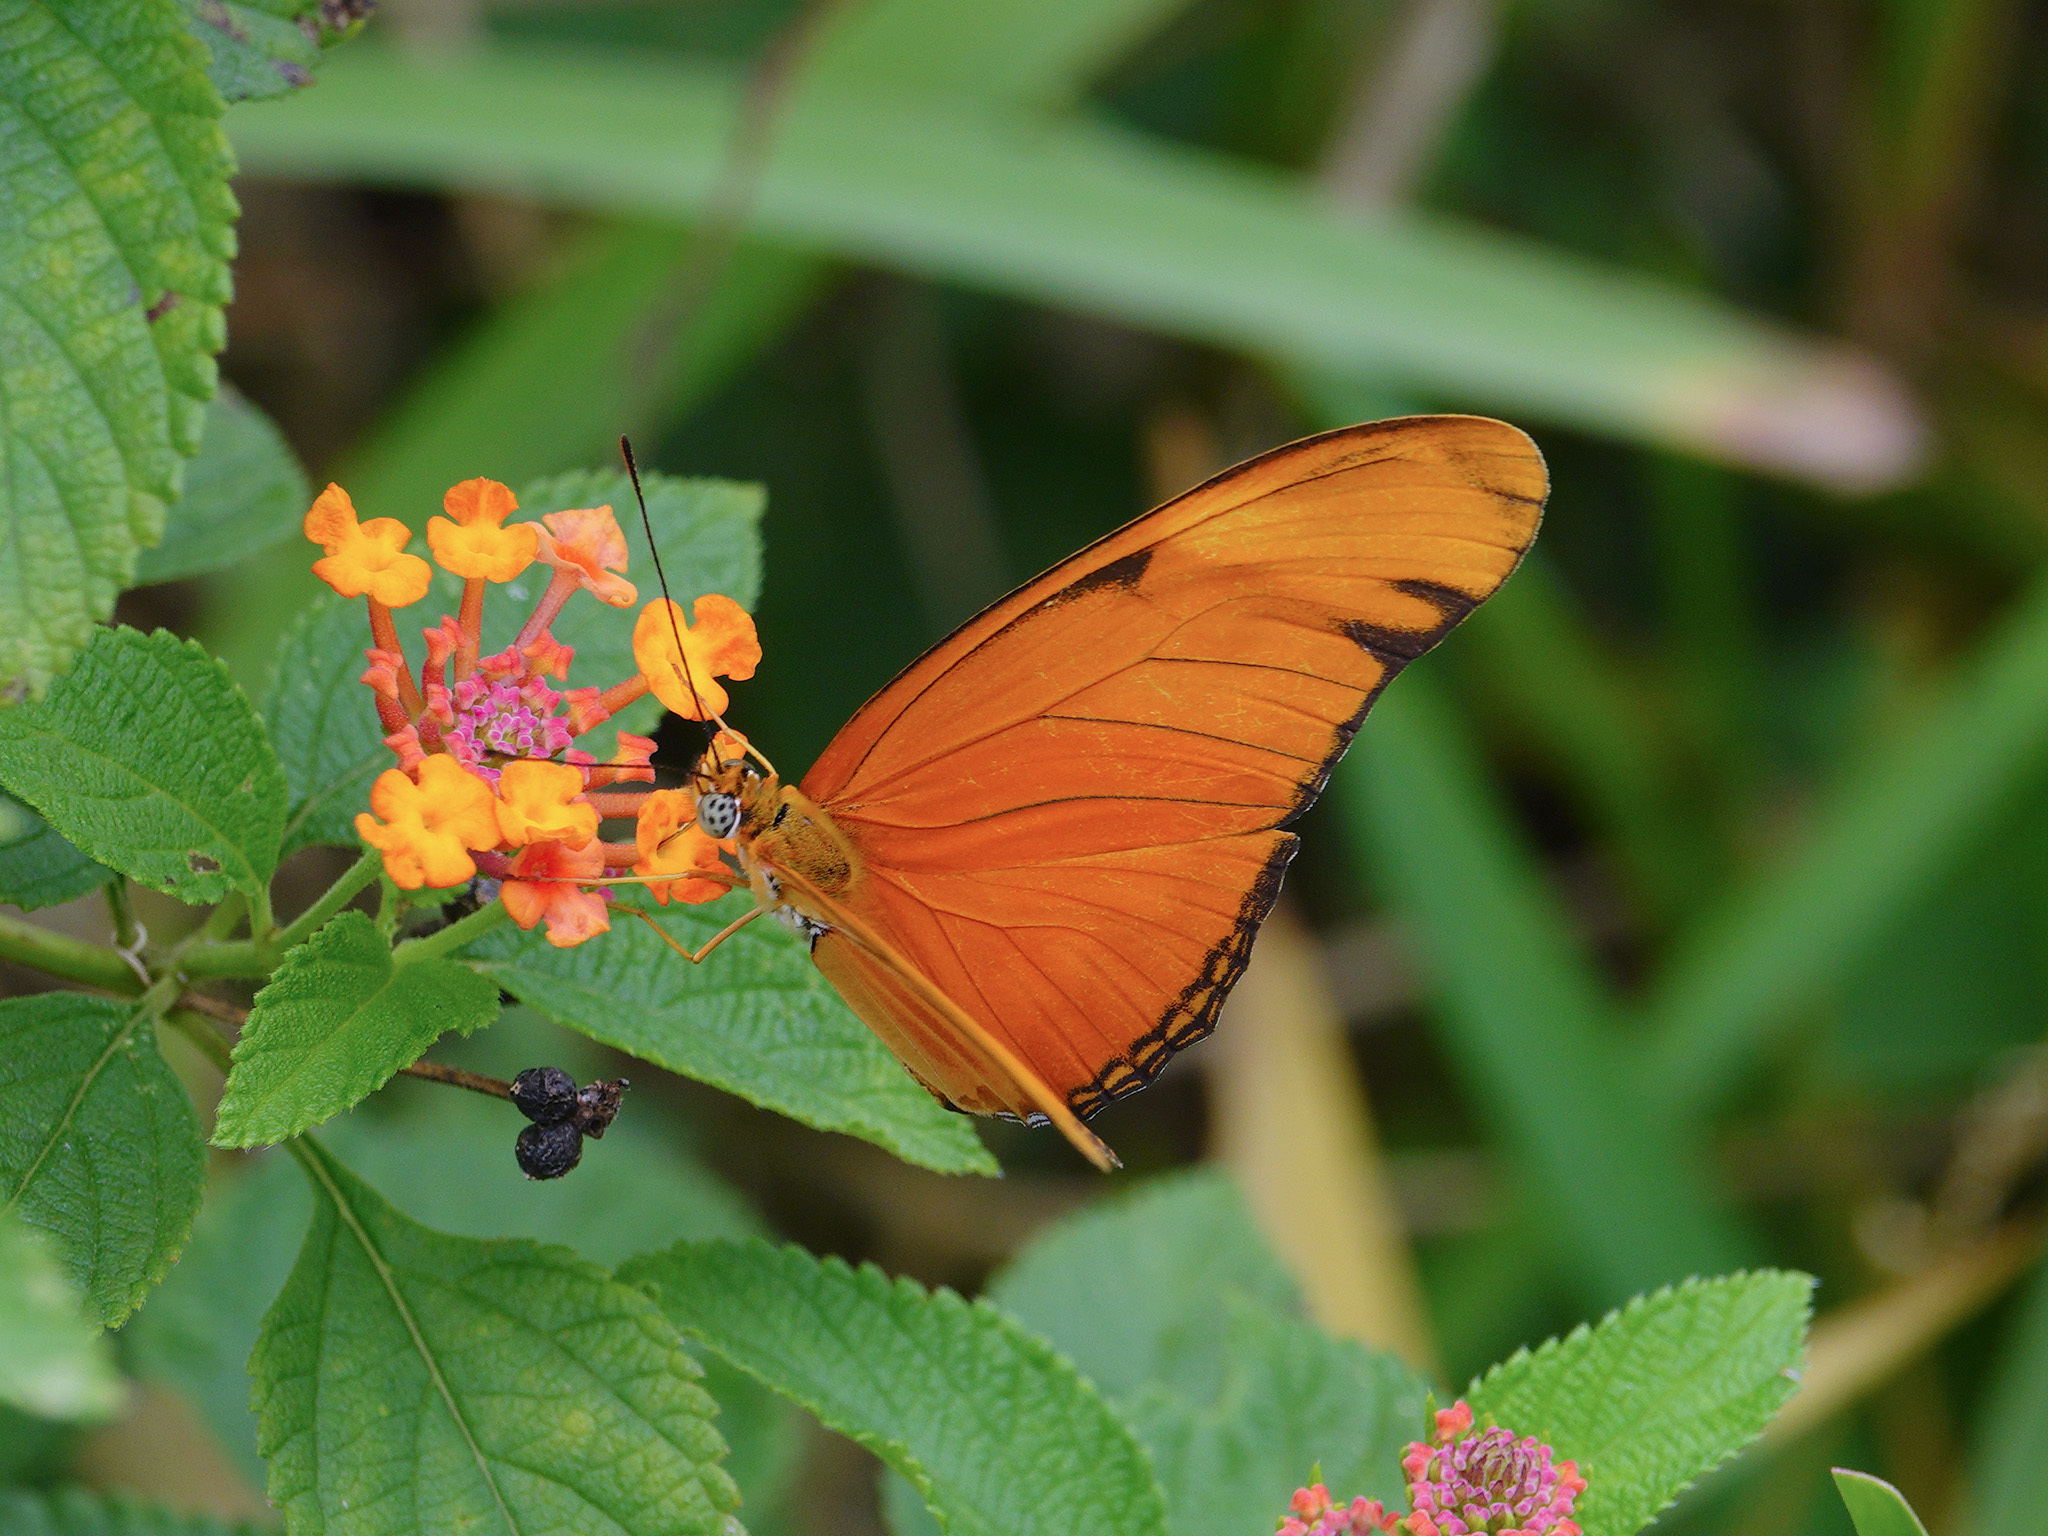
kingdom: Animalia
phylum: Arthropoda
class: Insecta
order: Lepidoptera
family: Nymphalidae
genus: Dryas
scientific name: Dryas iulia
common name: Flambeau
